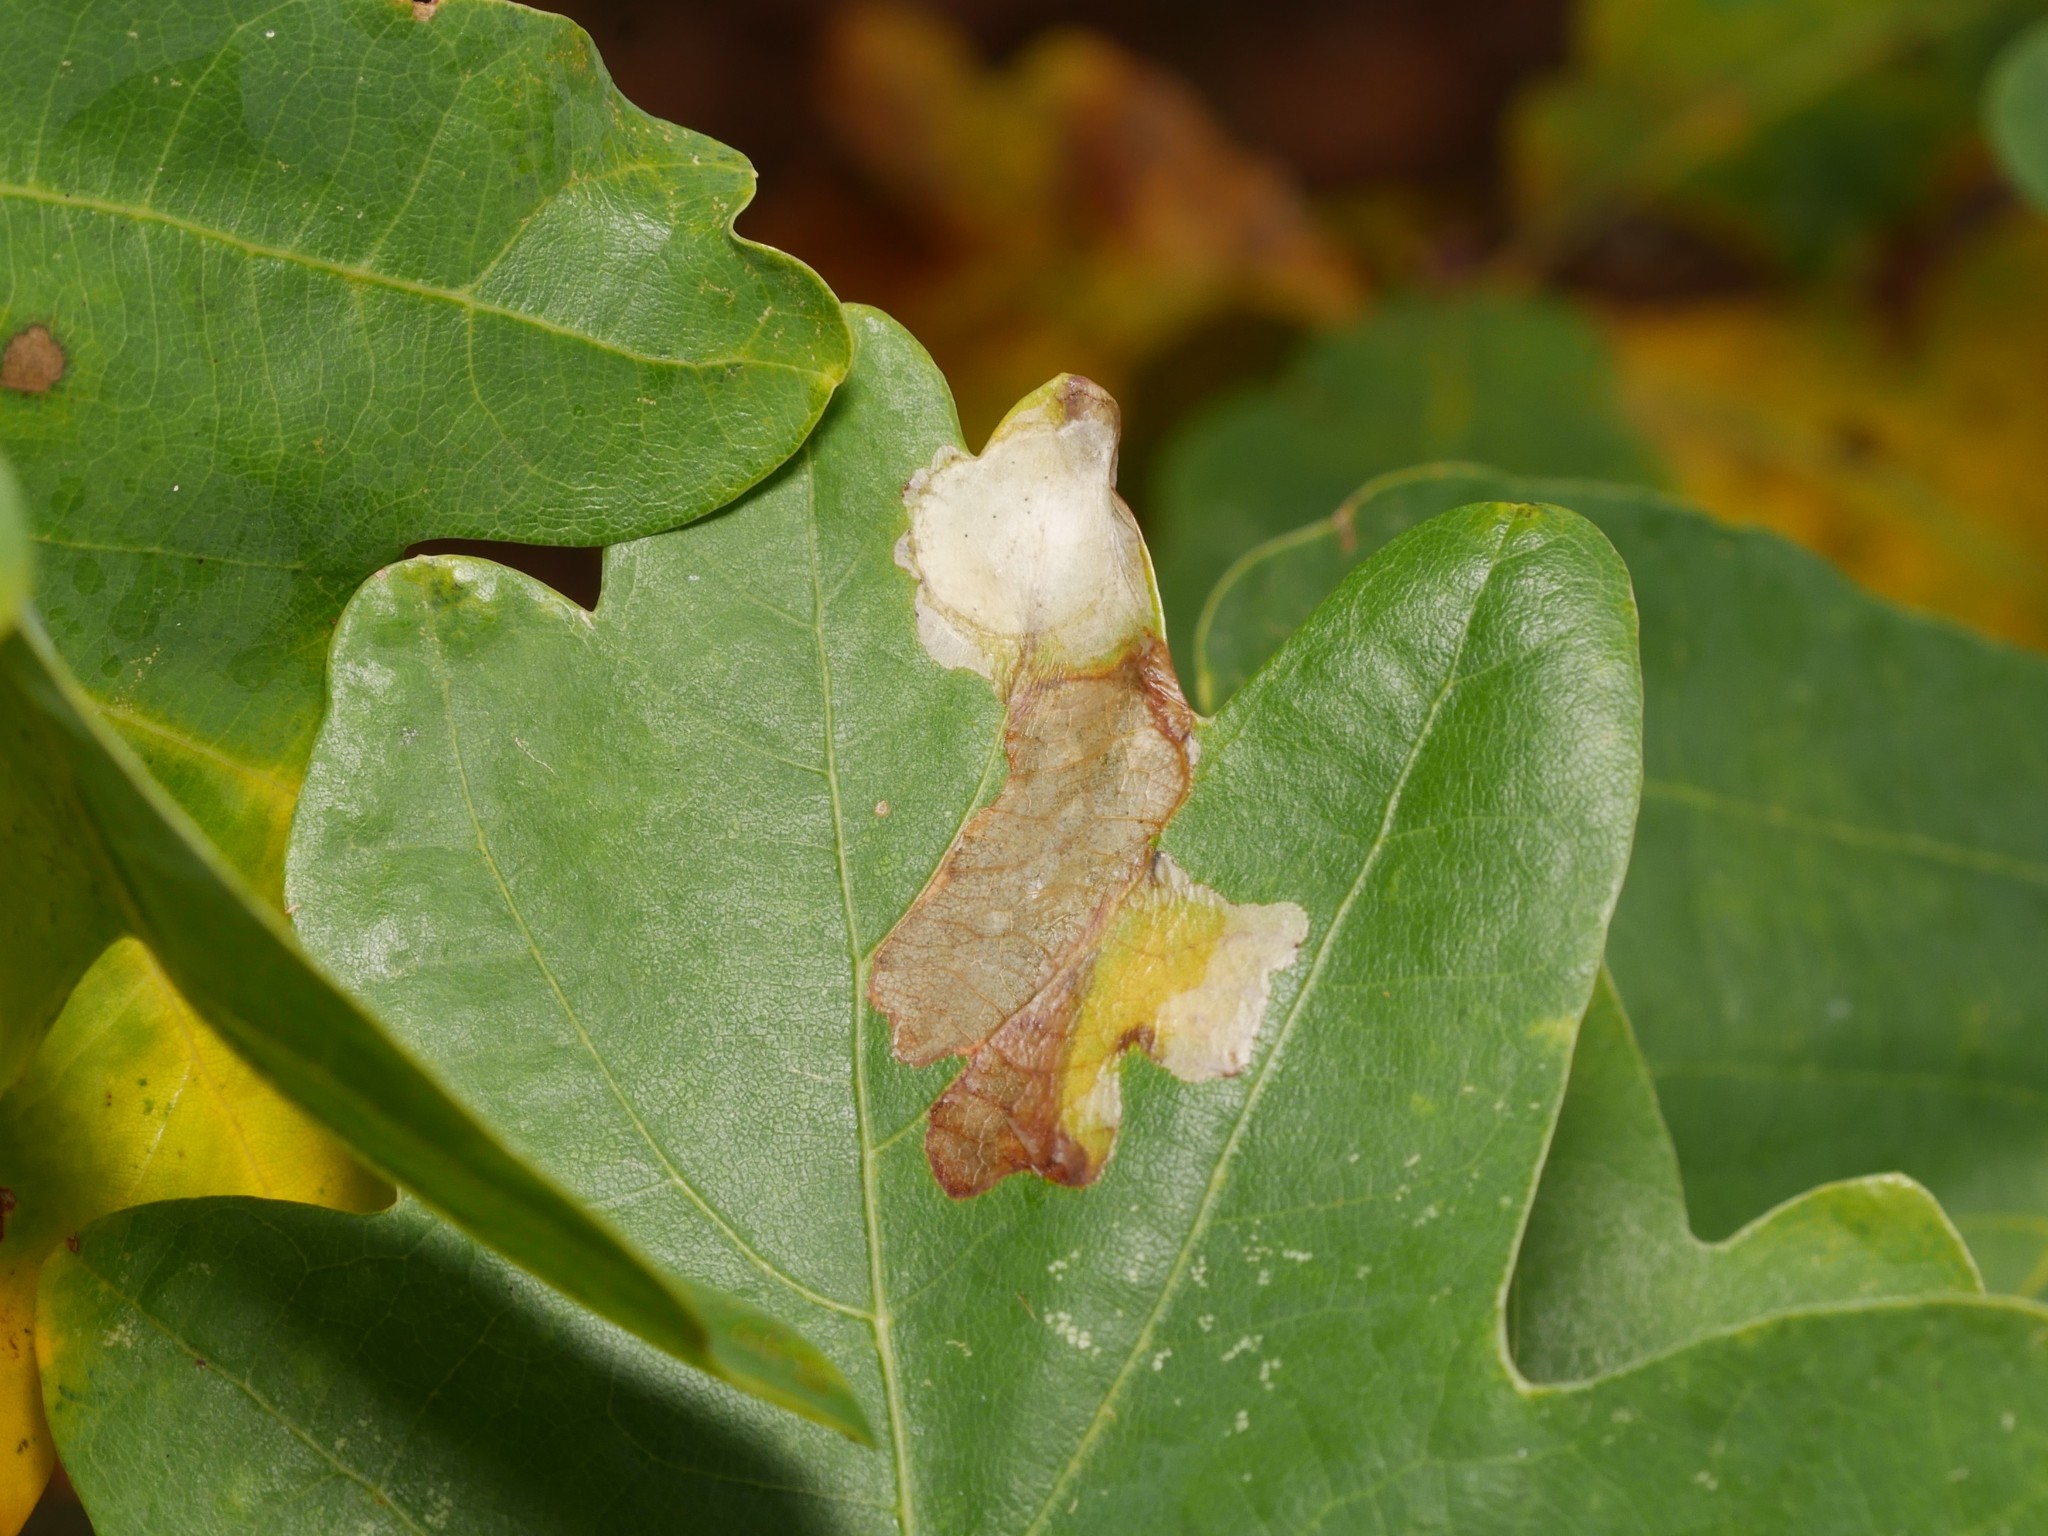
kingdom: Animalia
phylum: Arthropoda
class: Insecta
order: Lepidoptera
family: Tischeriidae
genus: Tischeria
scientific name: Tischeria ekebladella
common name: Oak carl
